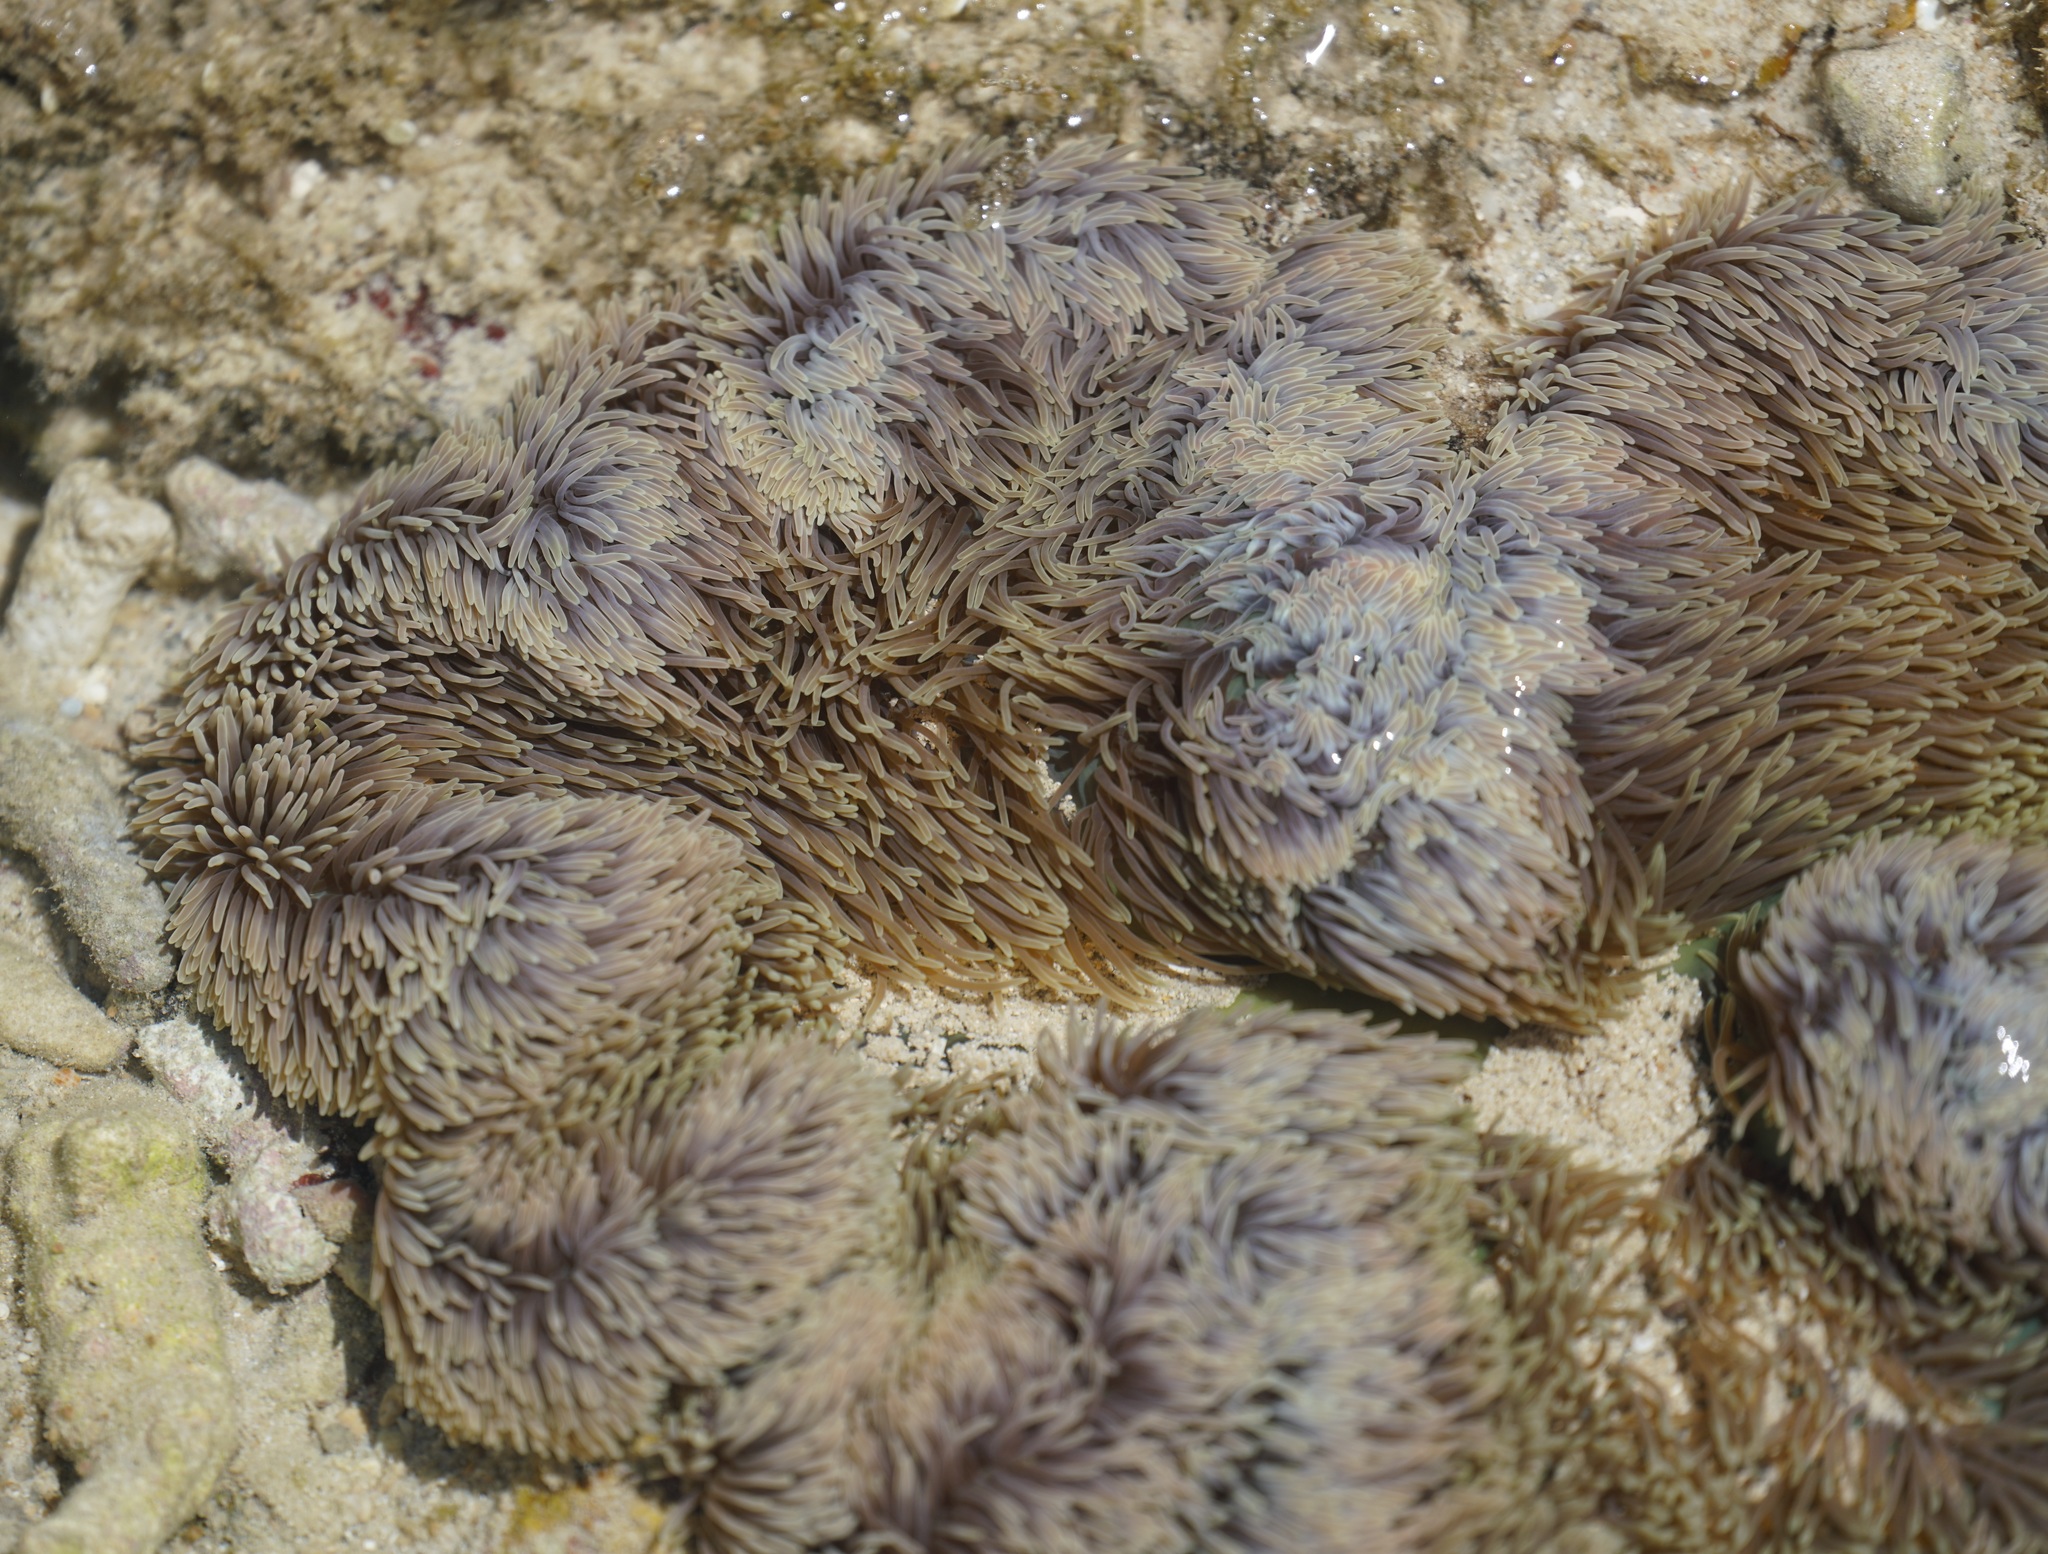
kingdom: Animalia
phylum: Cnidaria
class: Anthozoa
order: Actiniaria
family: Stichodactylidae
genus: Stichodactyla
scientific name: Stichodactyla gigantea
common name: Giant anemone
